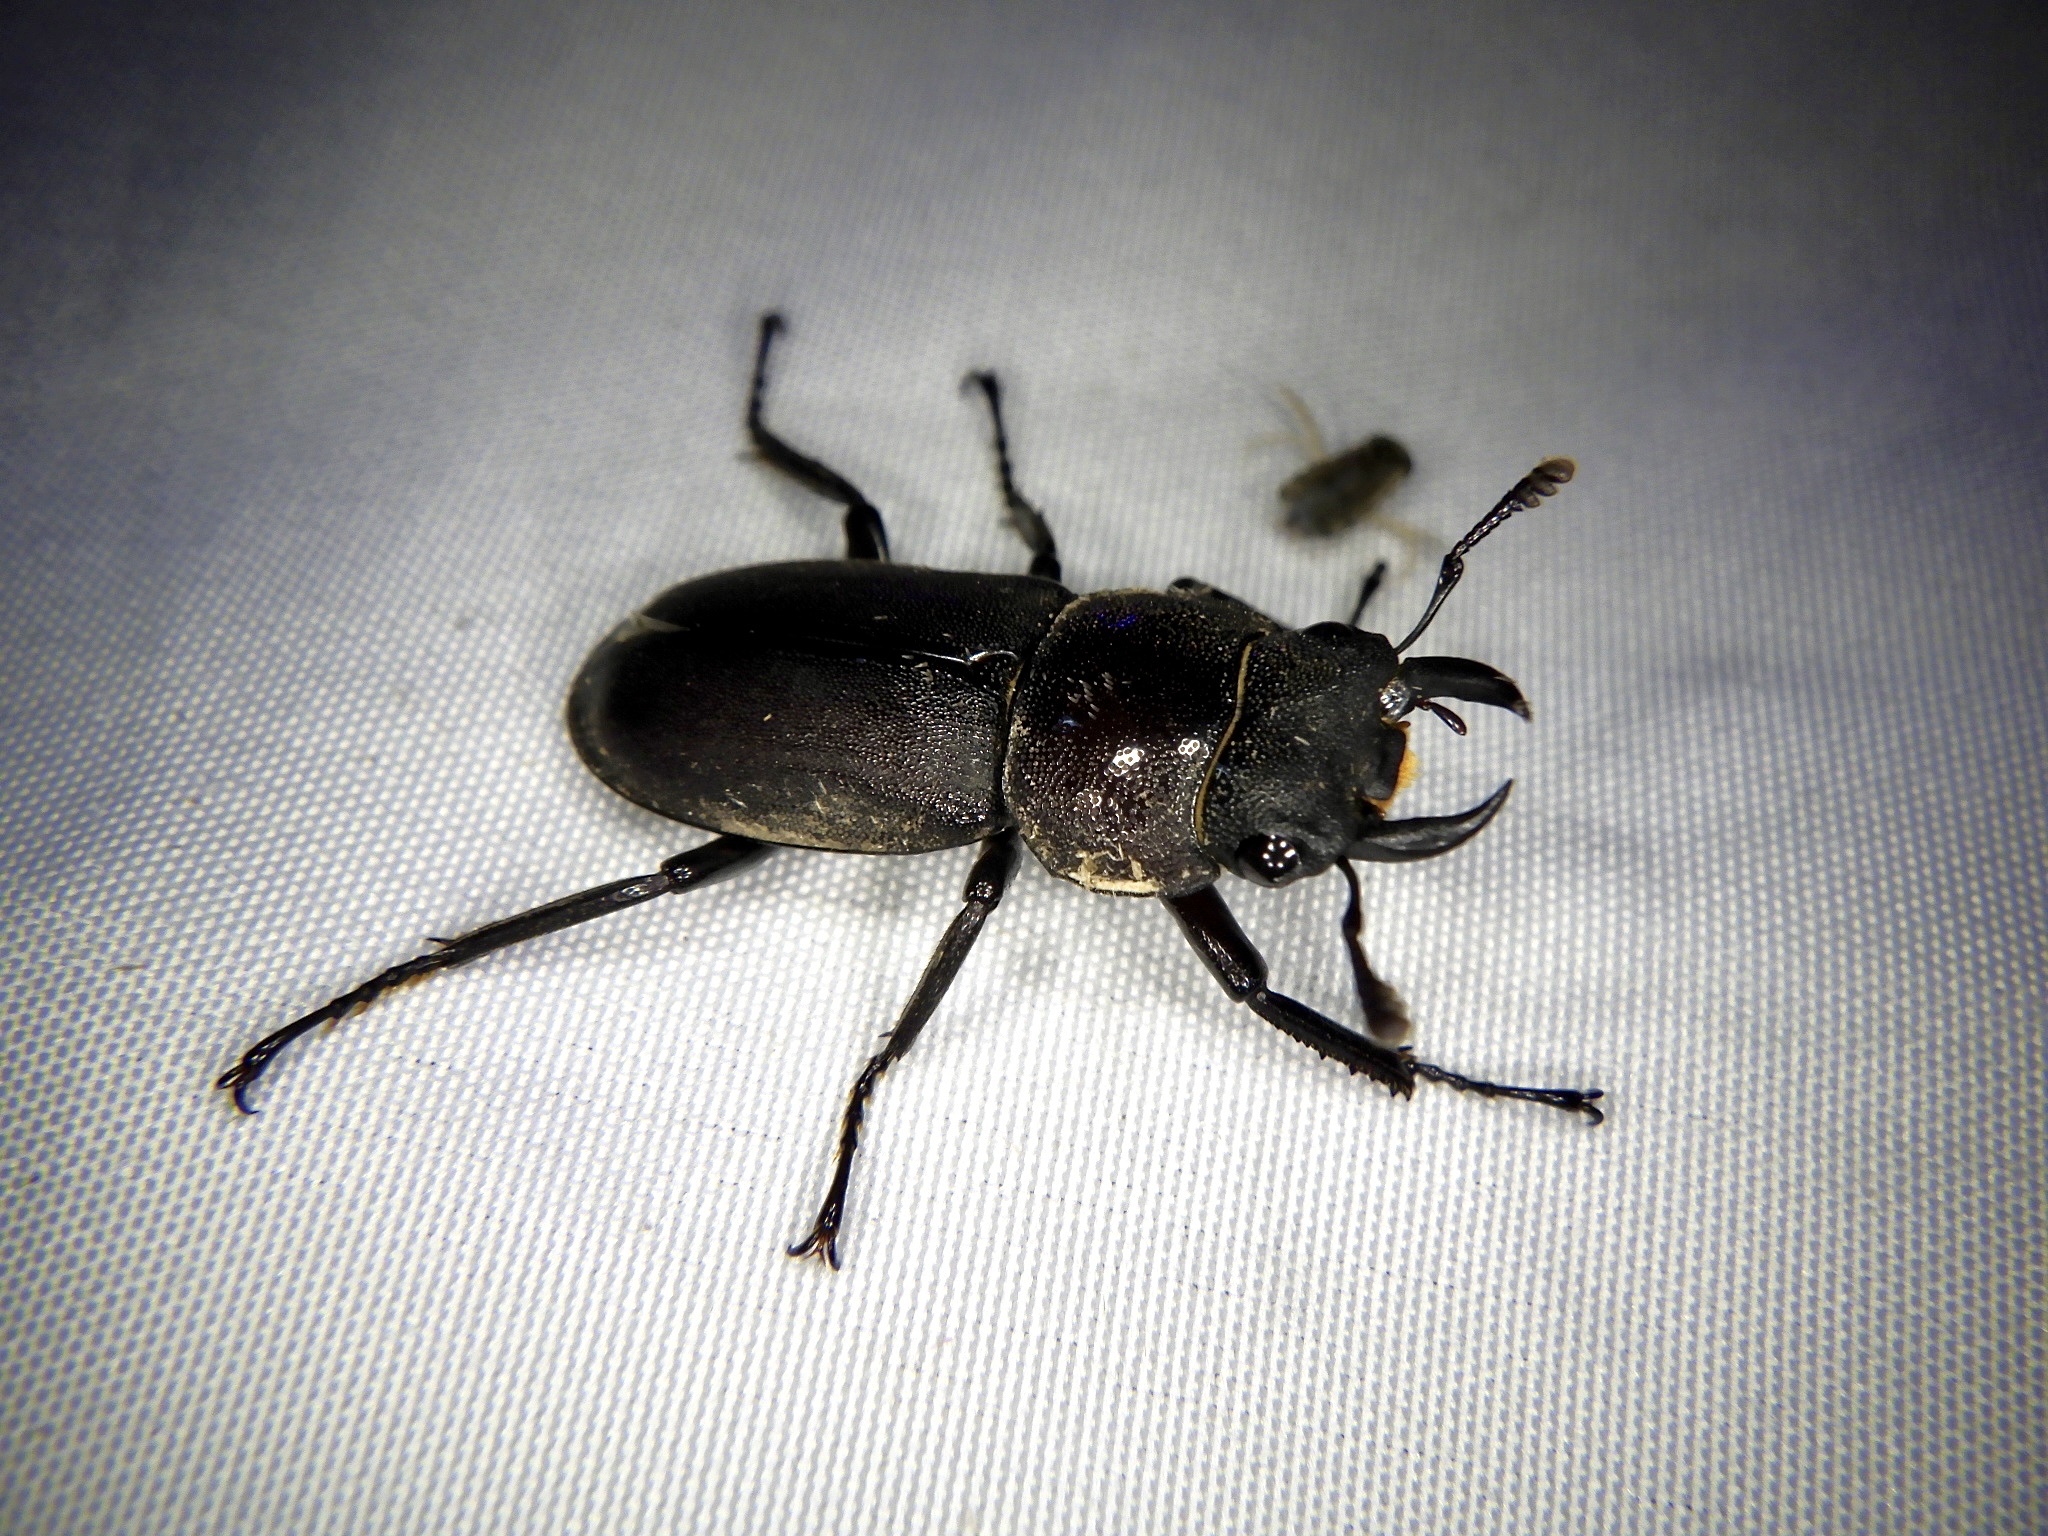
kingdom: Animalia
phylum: Arthropoda
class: Insecta
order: Coleoptera
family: Lucanidae
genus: Dorcus
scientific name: Dorcus rectus
